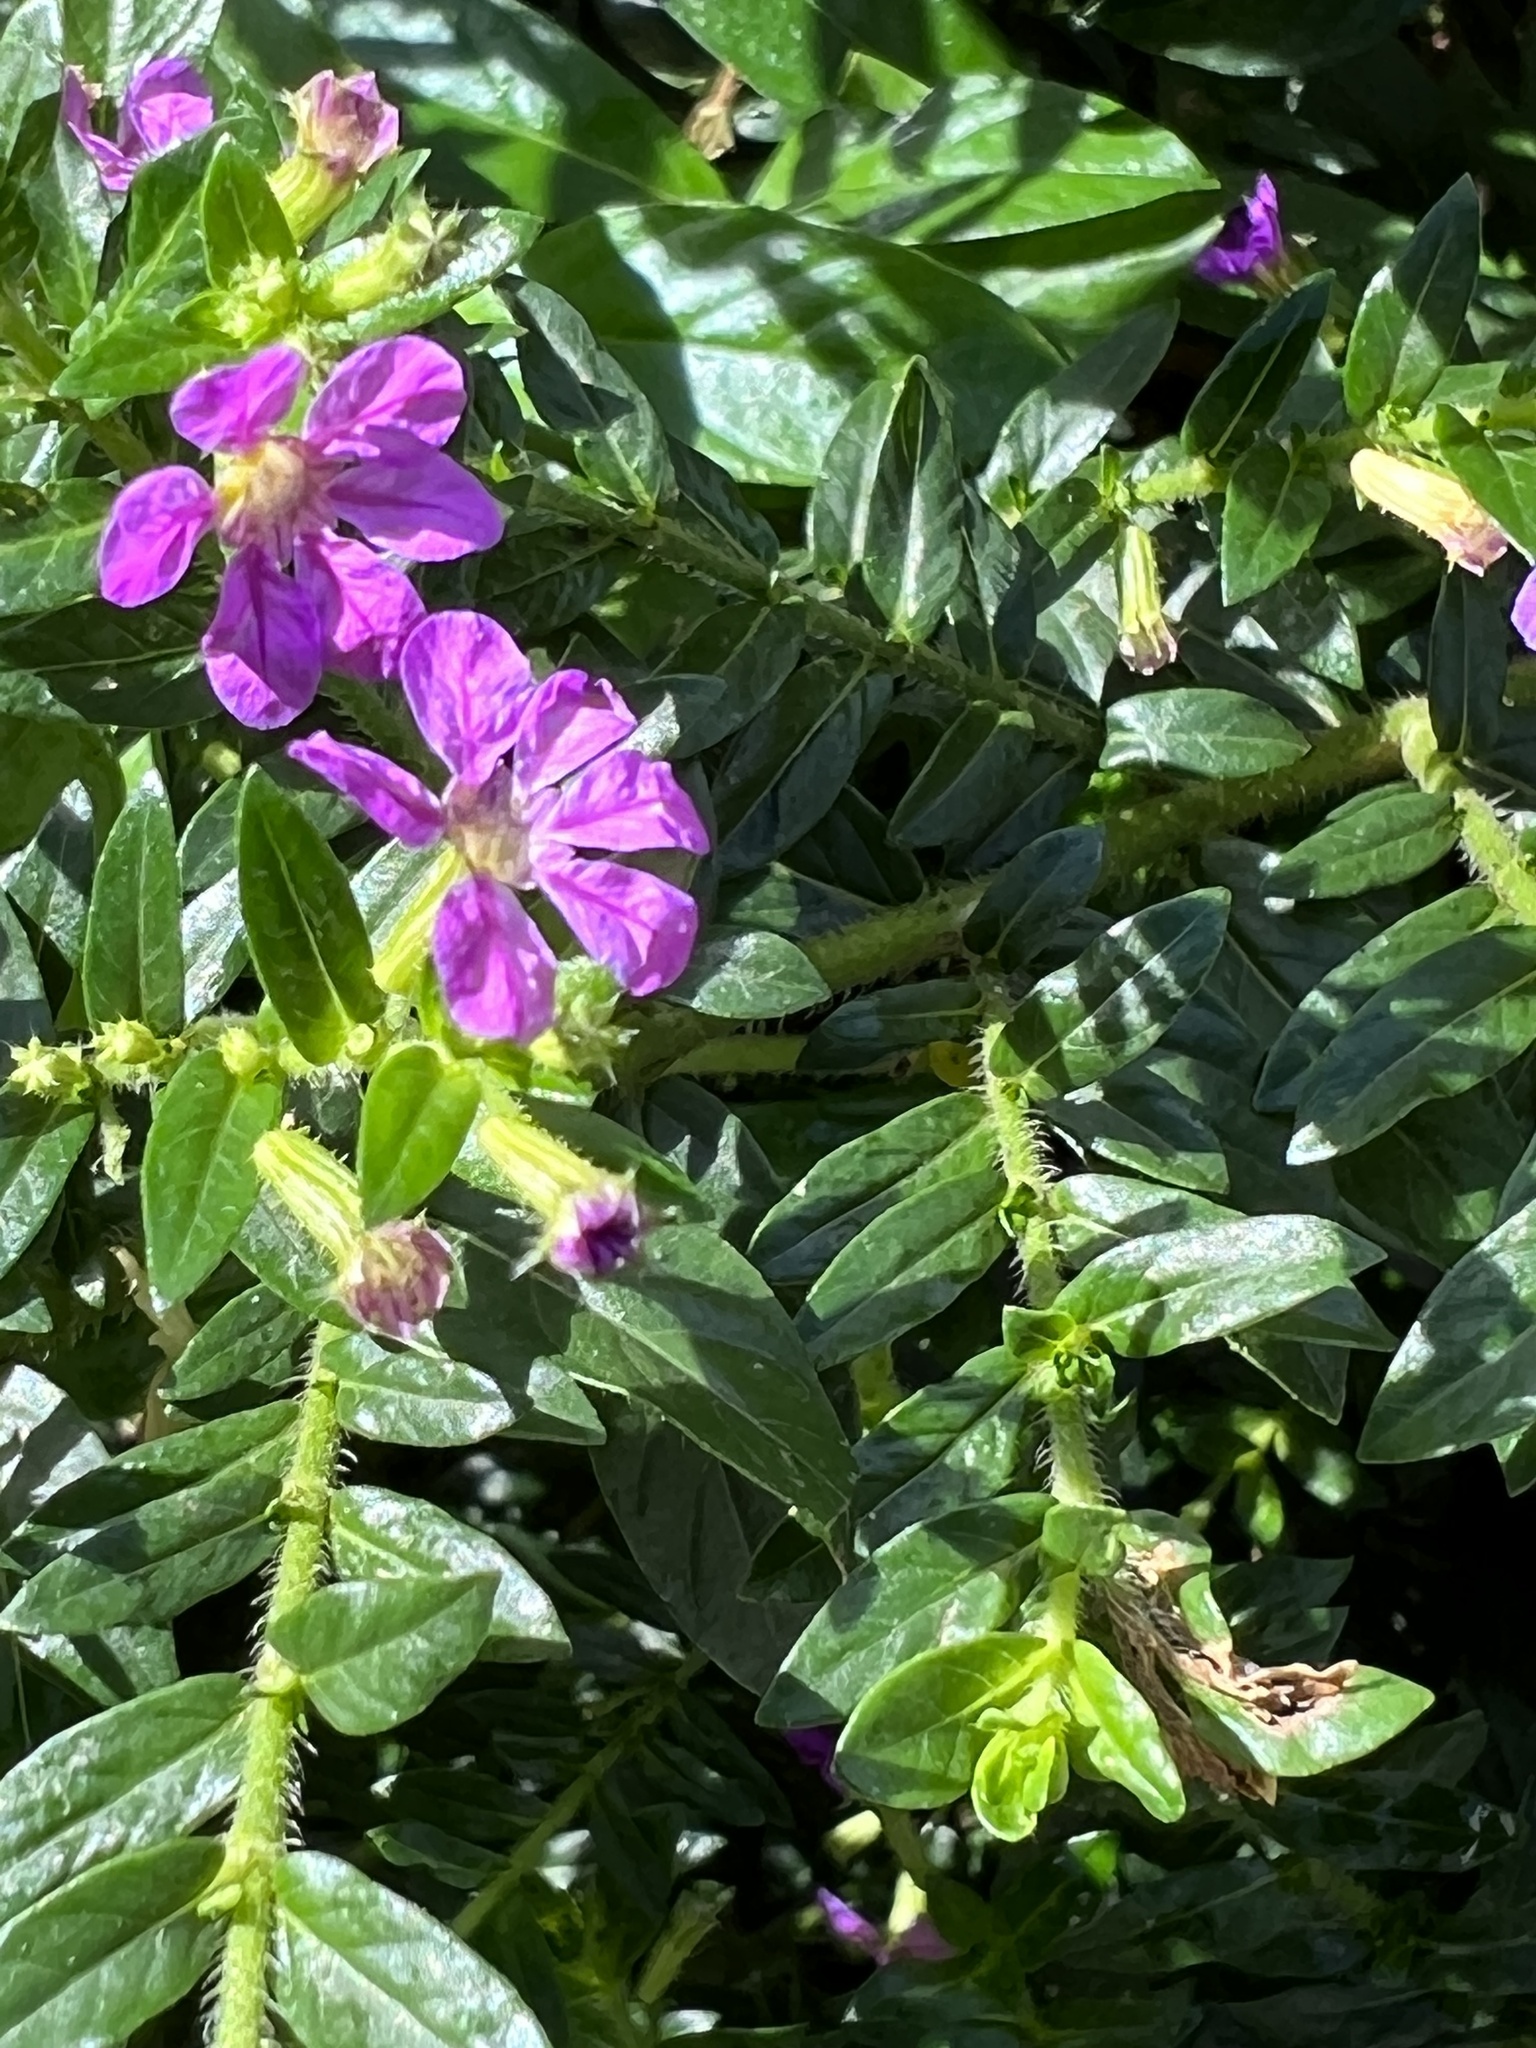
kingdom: Plantae
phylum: Tracheophyta
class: Magnoliopsida
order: Myrtales
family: Lythraceae
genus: Cuphea
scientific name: Cuphea hyssopifolia
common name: False heather
